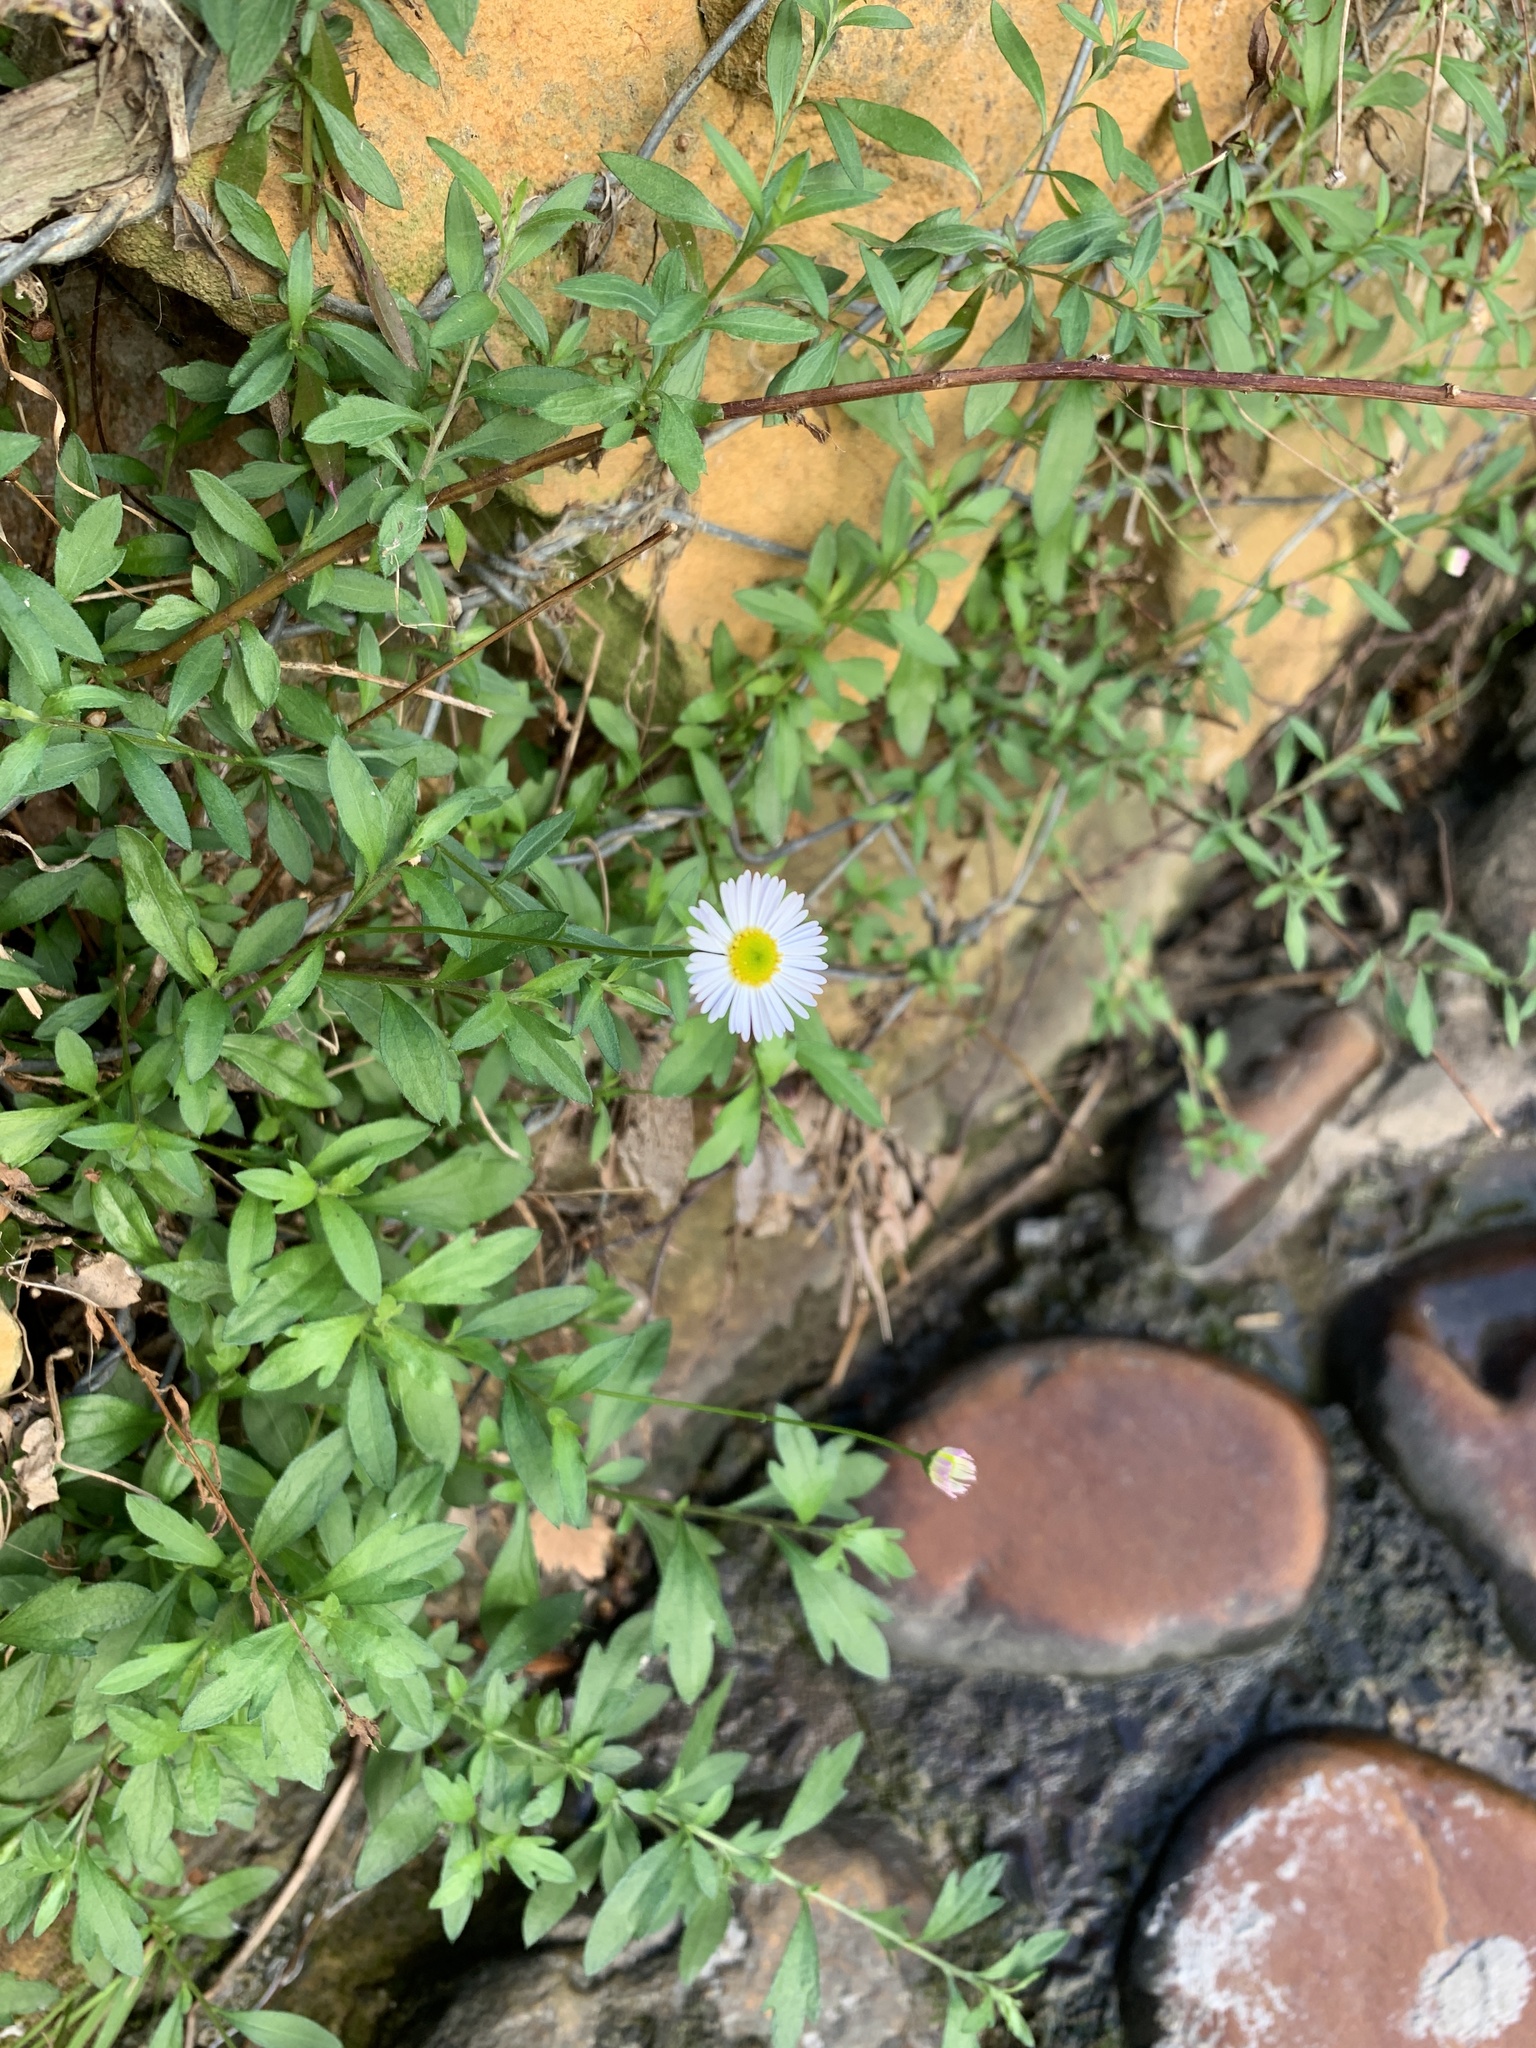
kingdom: Plantae
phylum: Tracheophyta
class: Magnoliopsida
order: Asterales
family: Asteraceae
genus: Erigeron
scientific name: Erigeron karvinskianus
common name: Mexican fleabane
